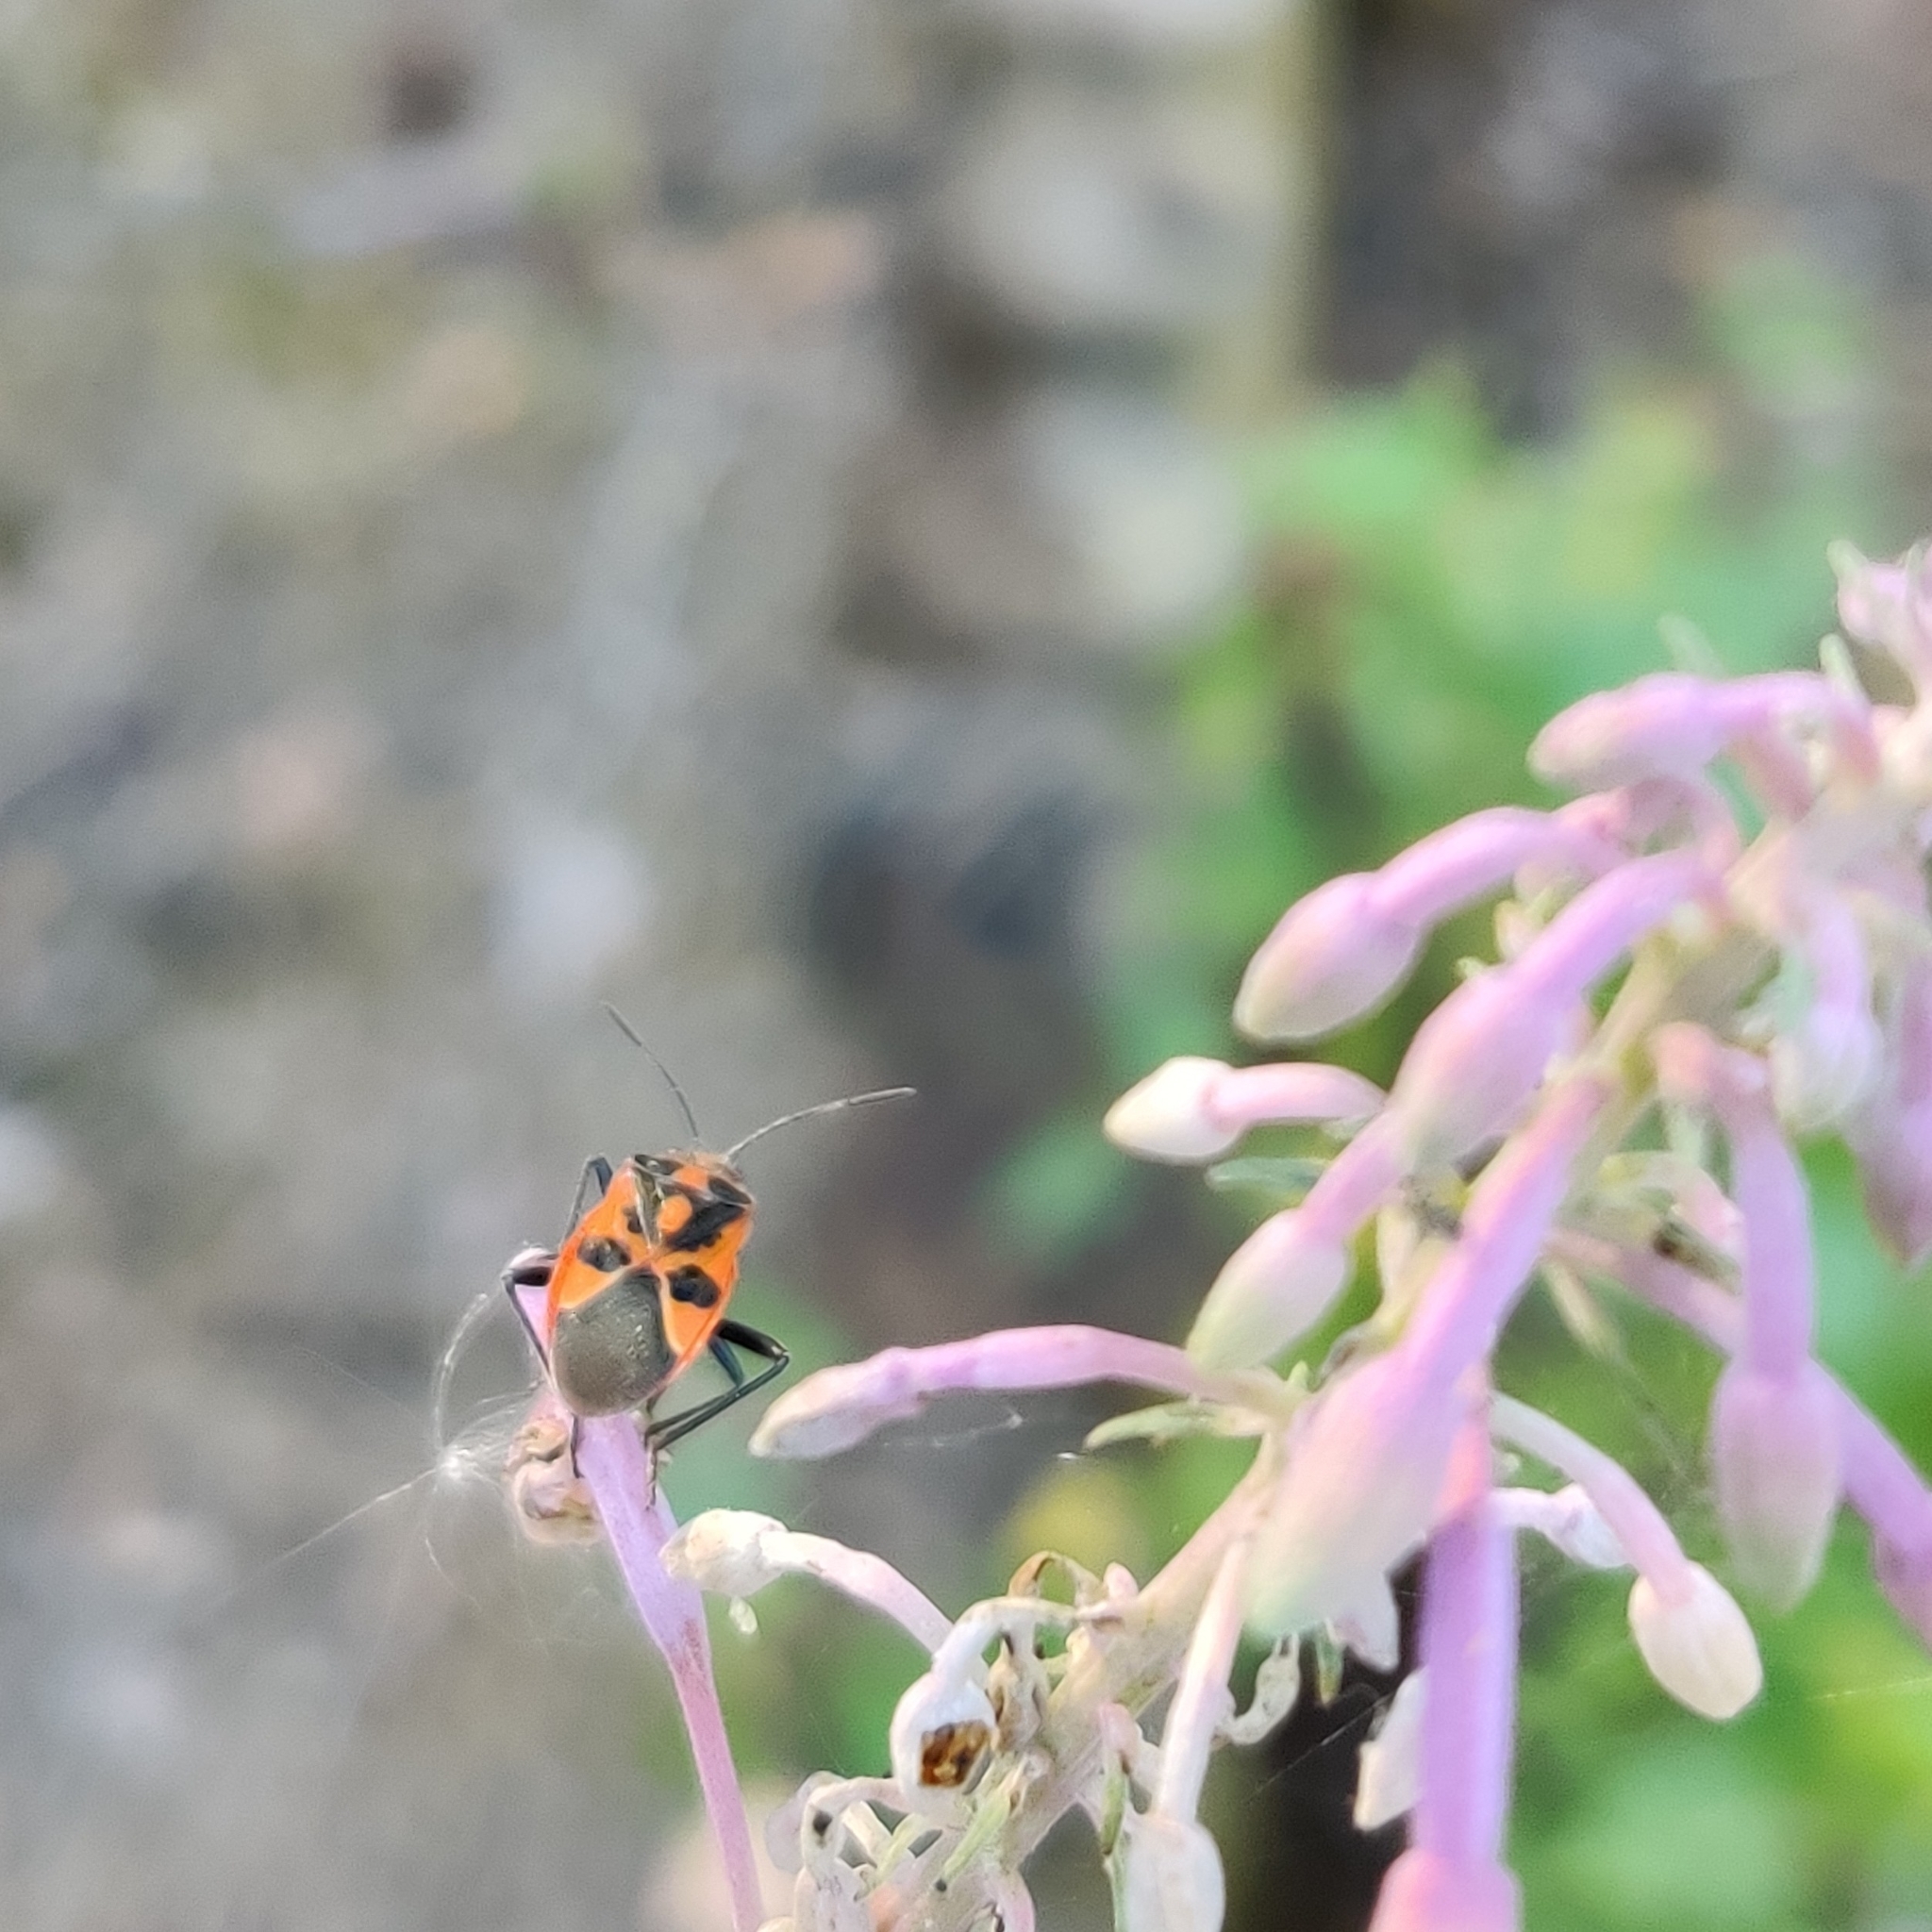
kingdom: Animalia
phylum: Arthropoda
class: Insecta
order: Hemiptera
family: Rhopalidae
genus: Corizus
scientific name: Corizus hyoscyami
